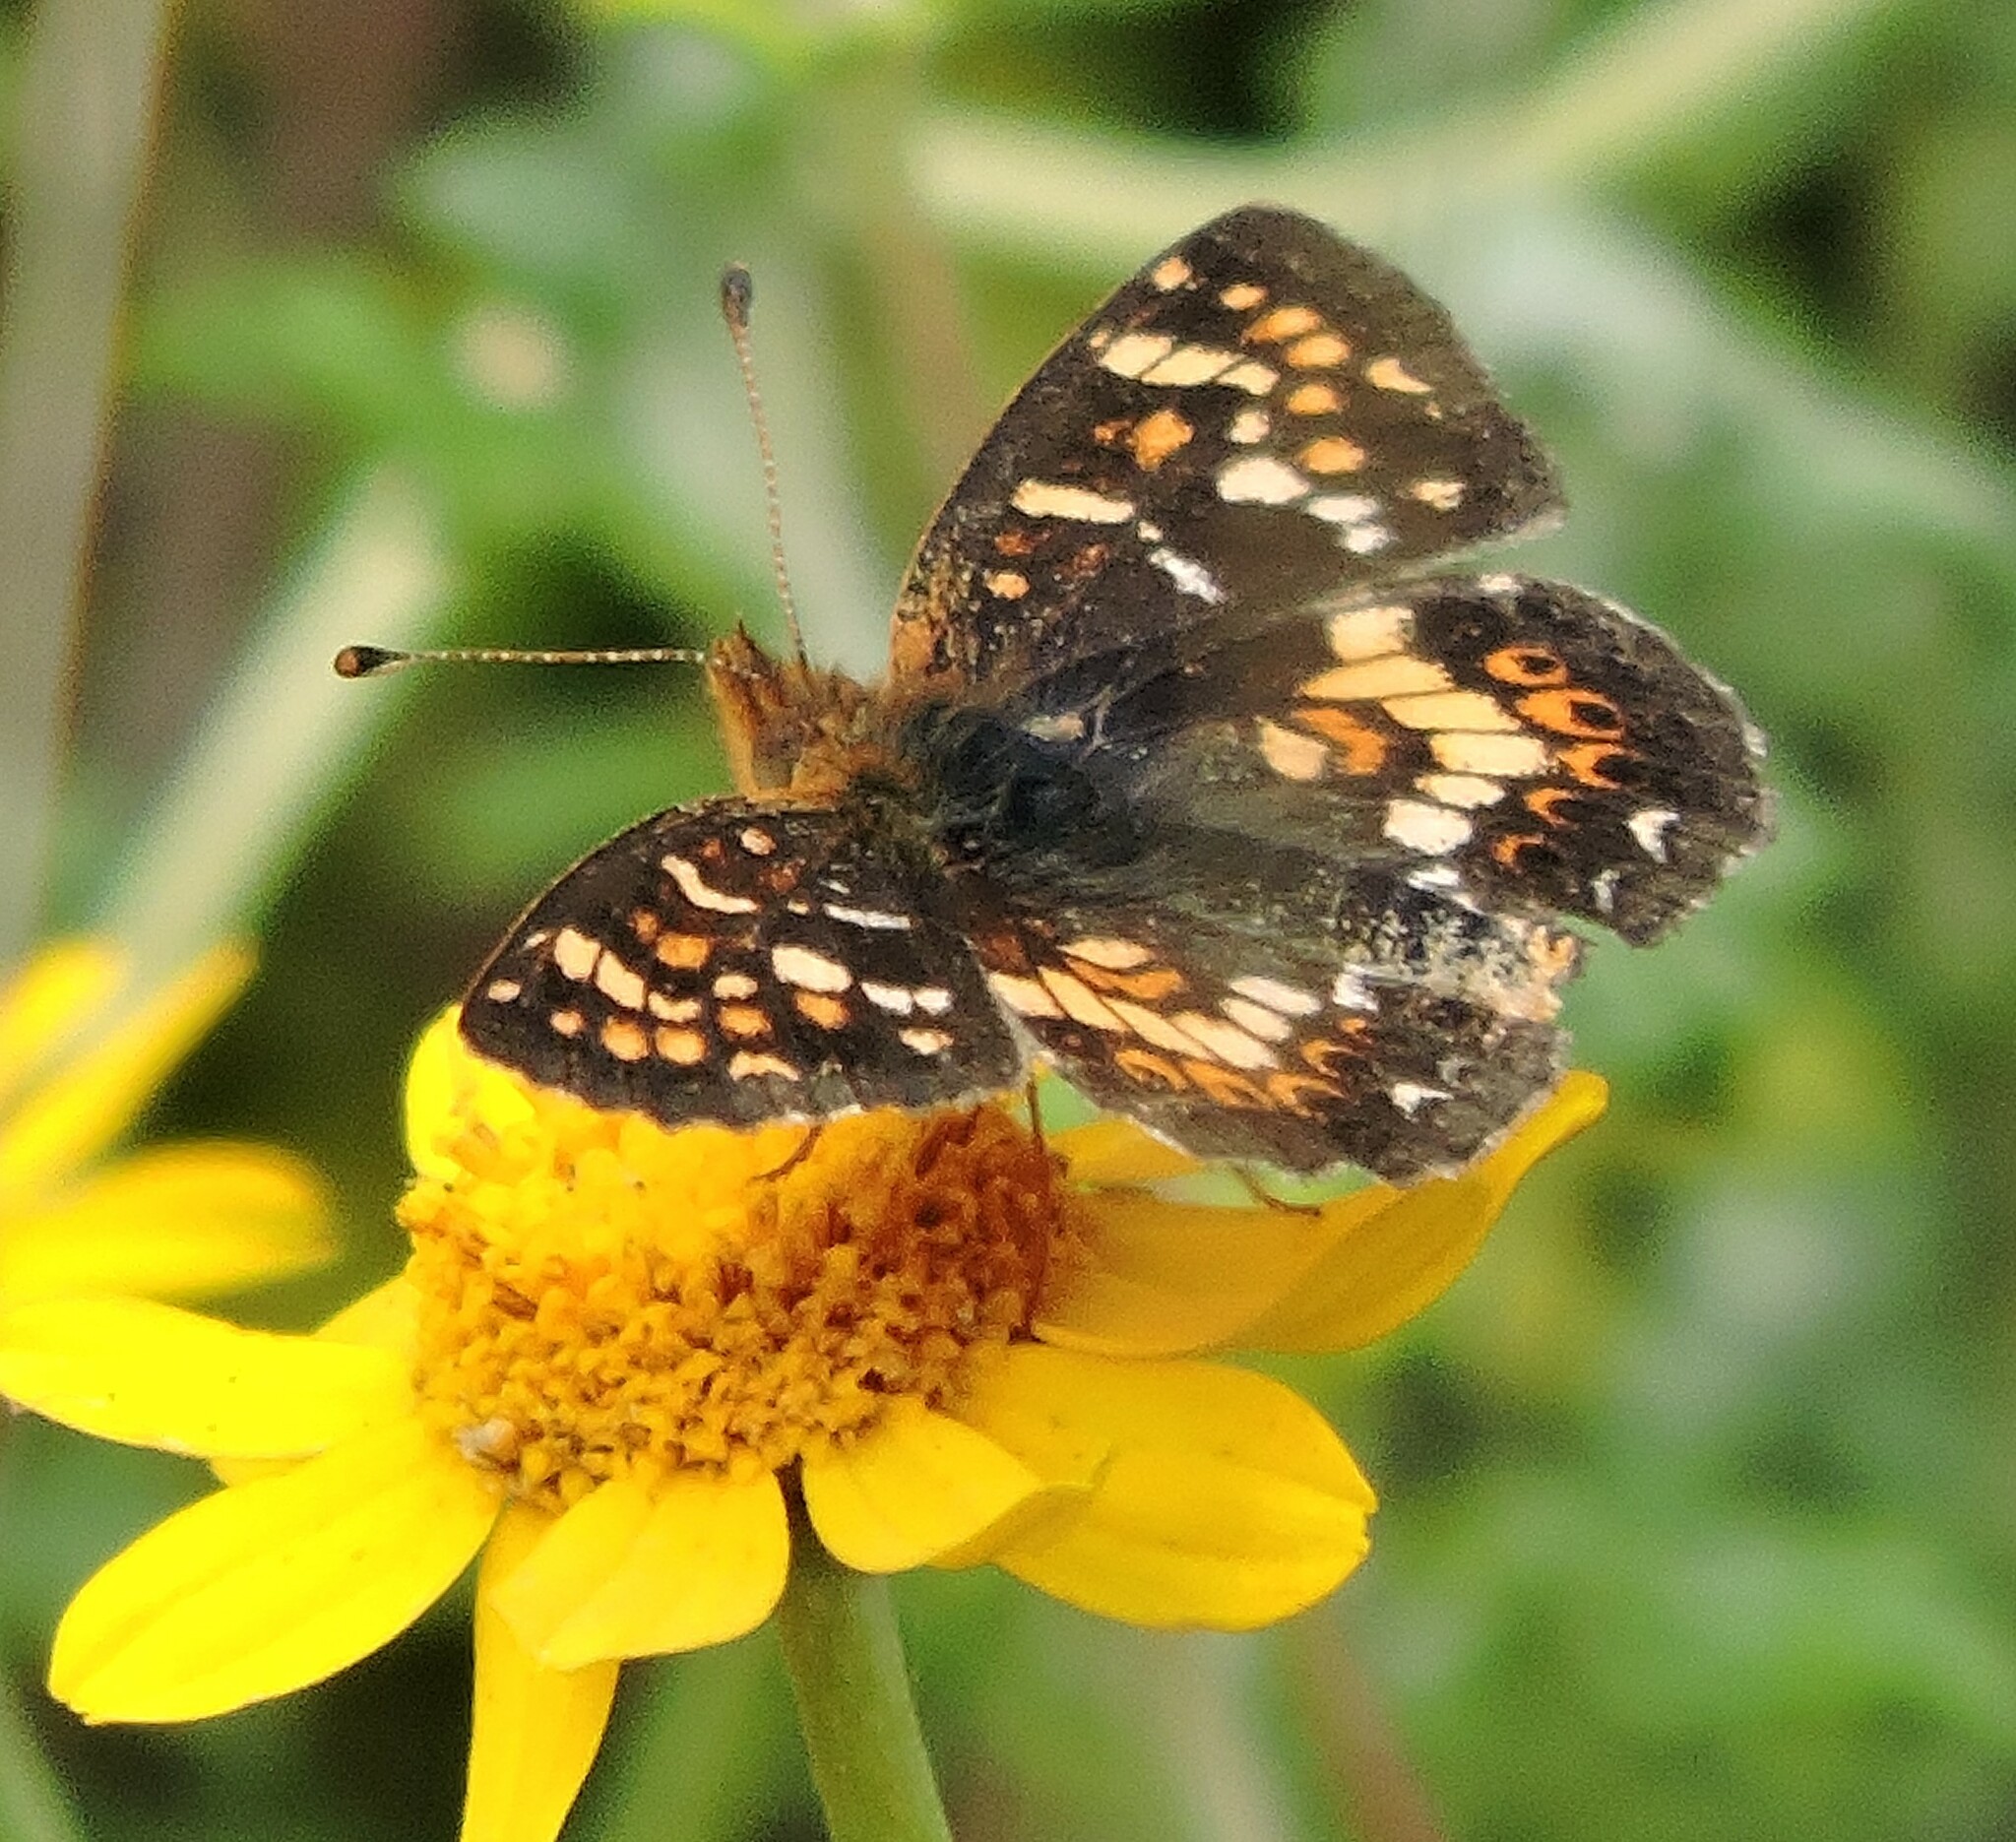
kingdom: Animalia
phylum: Arthropoda
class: Insecta
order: Lepidoptera
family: Nymphalidae
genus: Phyciodes
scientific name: Phyciodes tharos
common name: Pearl crescent
